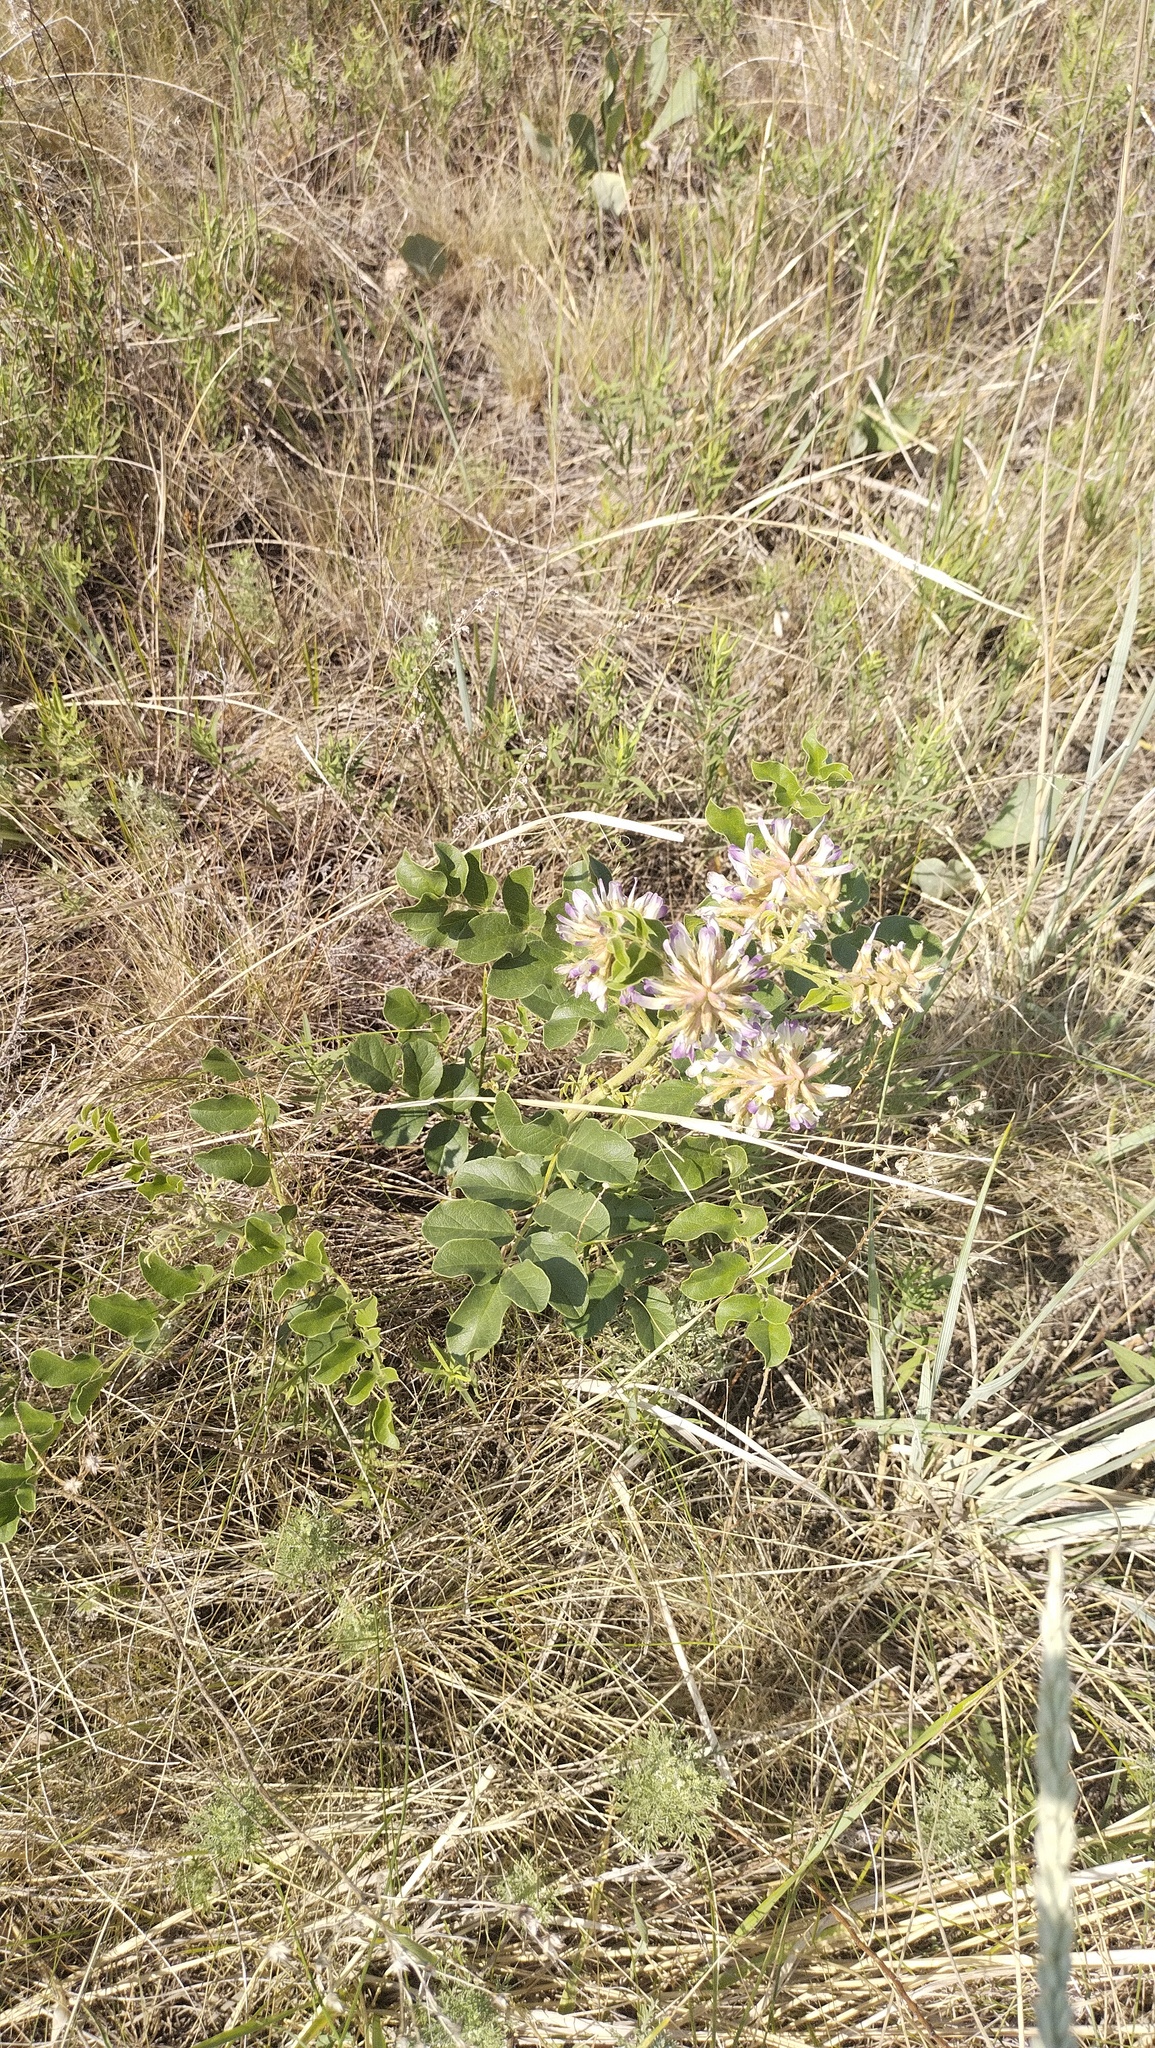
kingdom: Plantae
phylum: Tracheophyta
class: Magnoliopsida
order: Fabales
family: Fabaceae
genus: Glycyrrhiza
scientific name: Glycyrrhiza uralensis
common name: Chinese licorice
